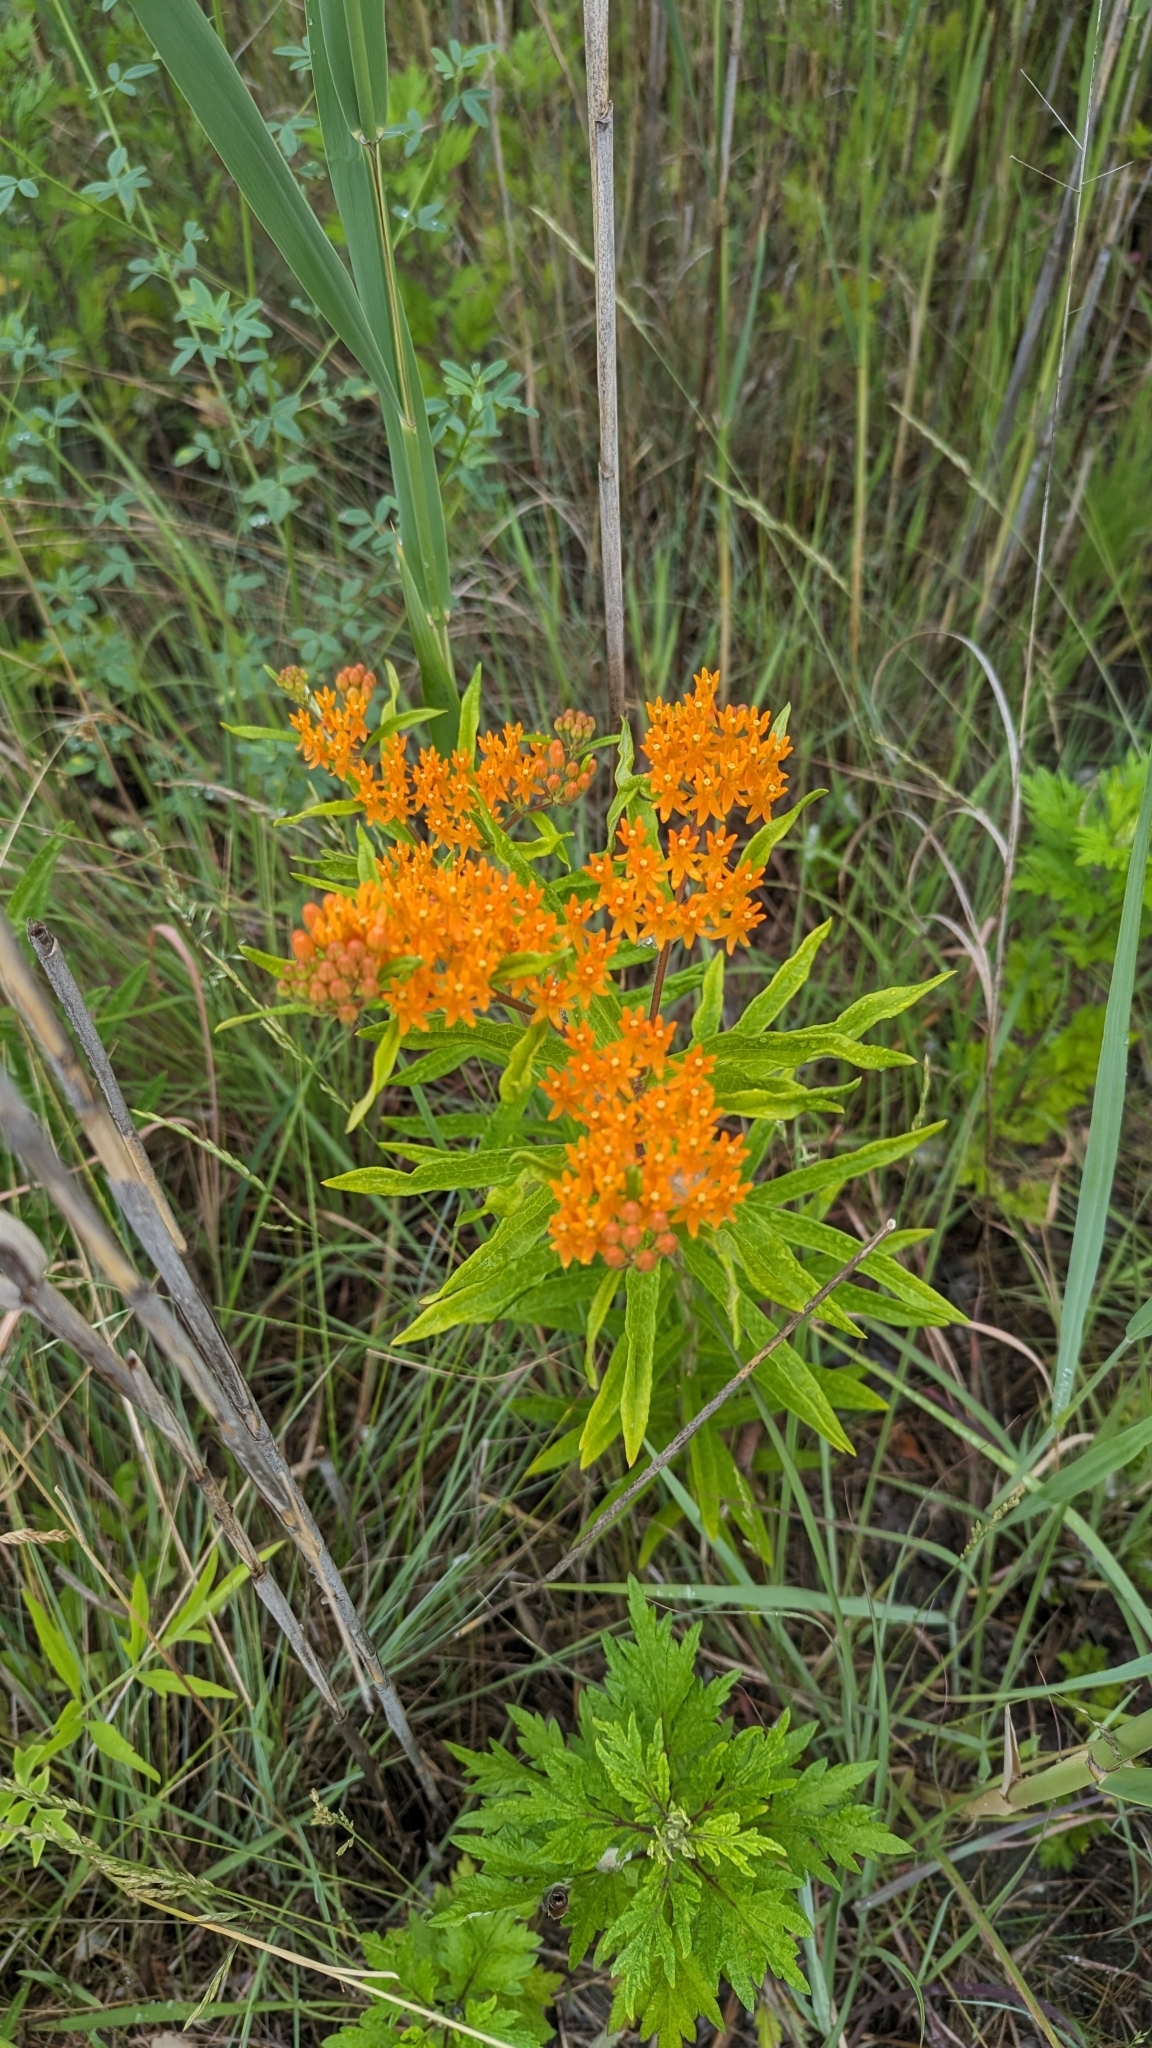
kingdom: Plantae
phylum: Tracheophyta
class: Magnoliopsida
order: Gentianales
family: Apocynaceae
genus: Asclepias
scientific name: Asclepias tuberosa
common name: Butterfly milkweed
